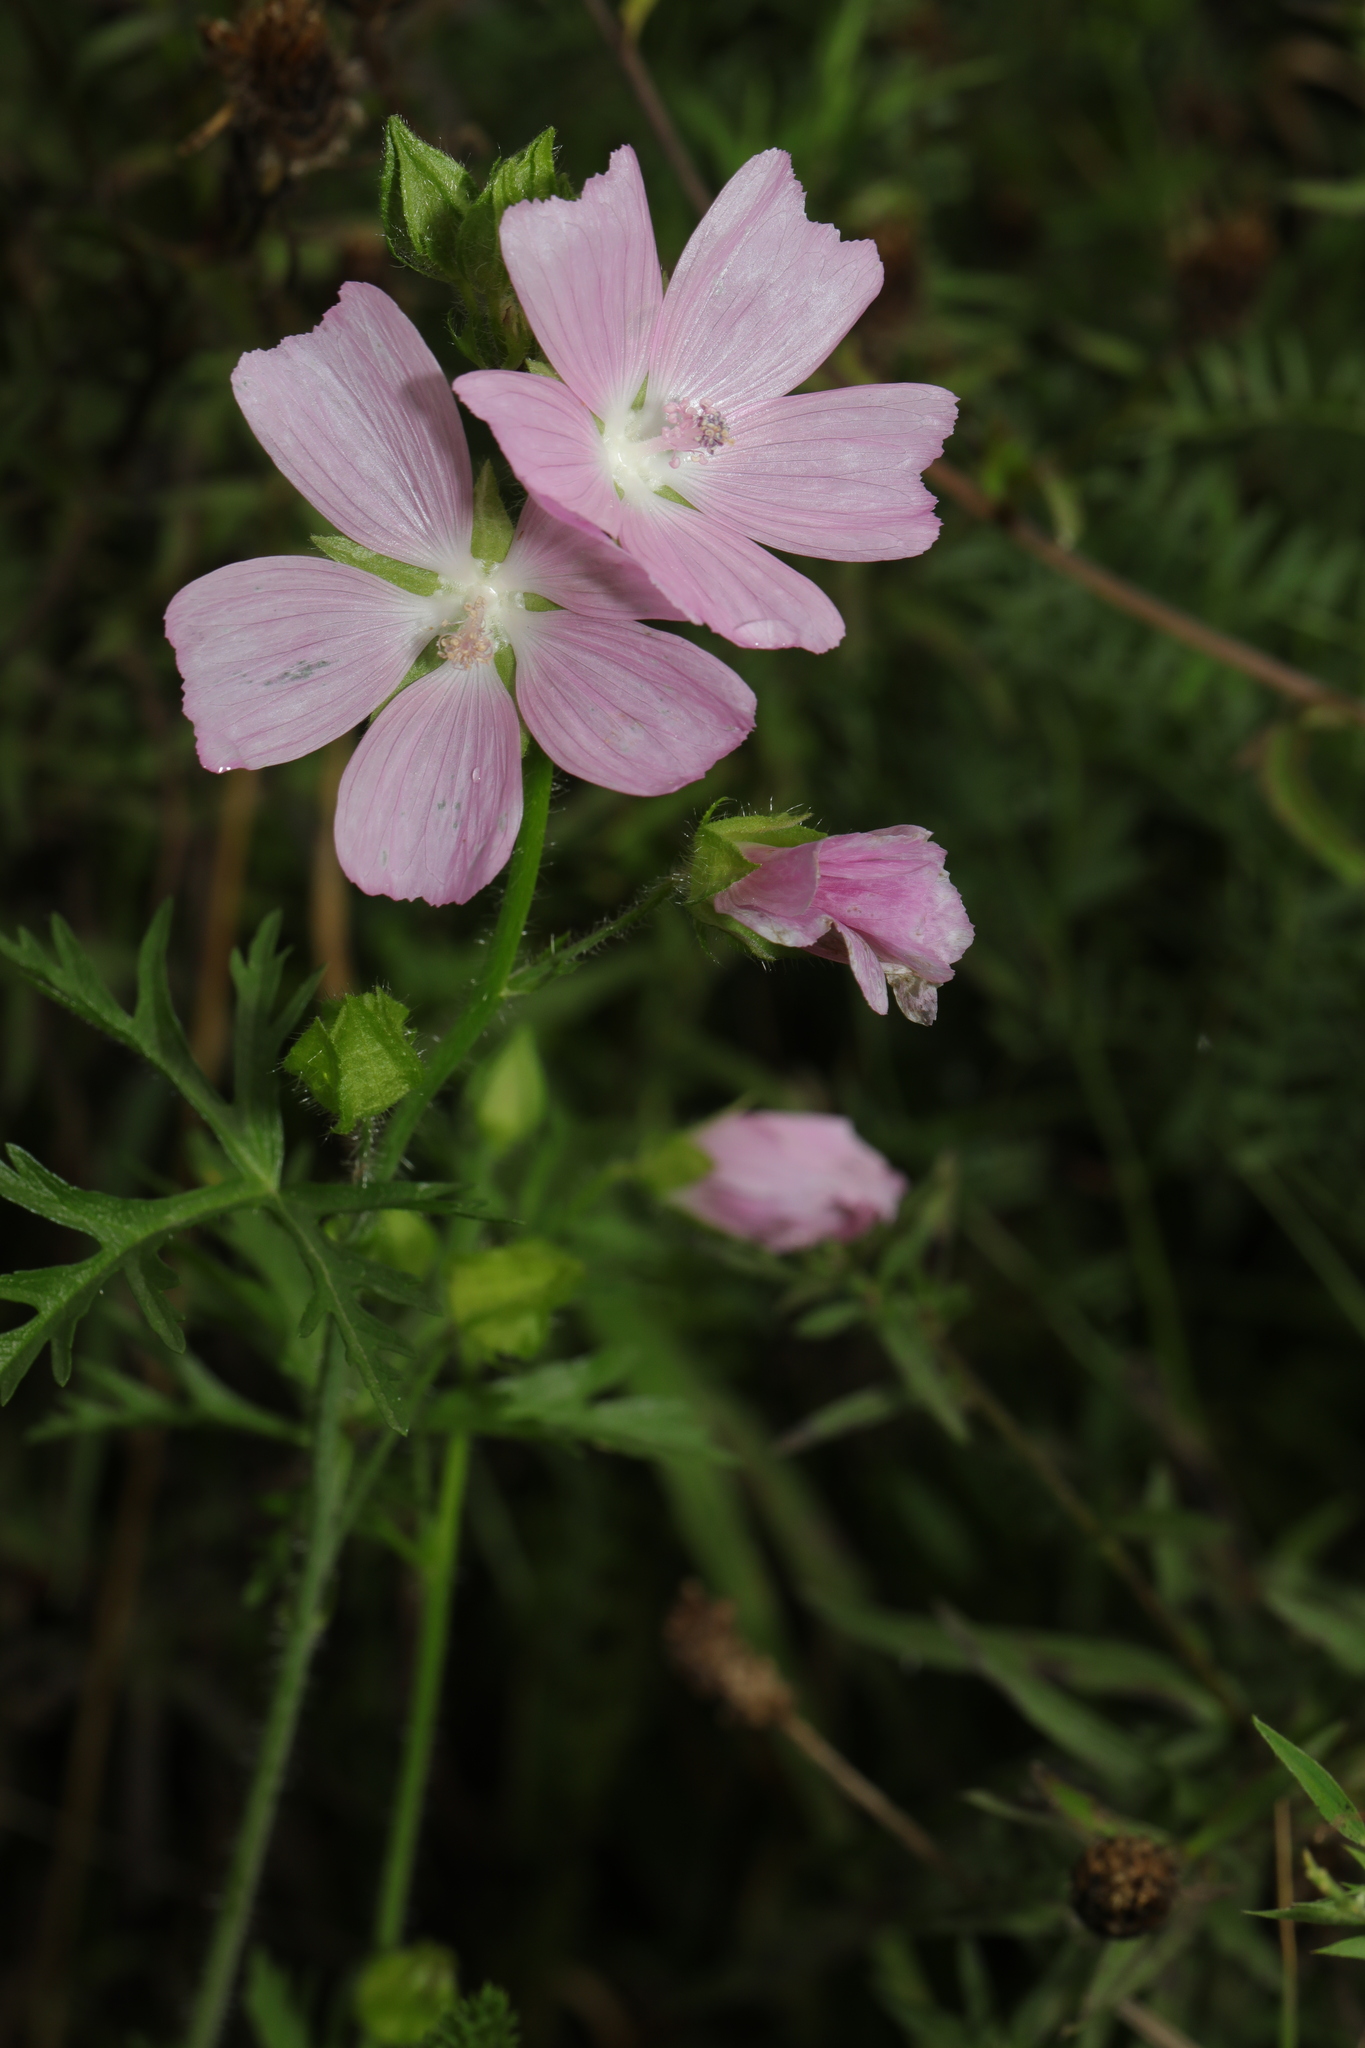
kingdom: Plantae
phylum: Tracheophyta
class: Magnoliopsida
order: Malvales
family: Malvaceae
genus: Malva
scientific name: Malva moschata
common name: Musk mallow
